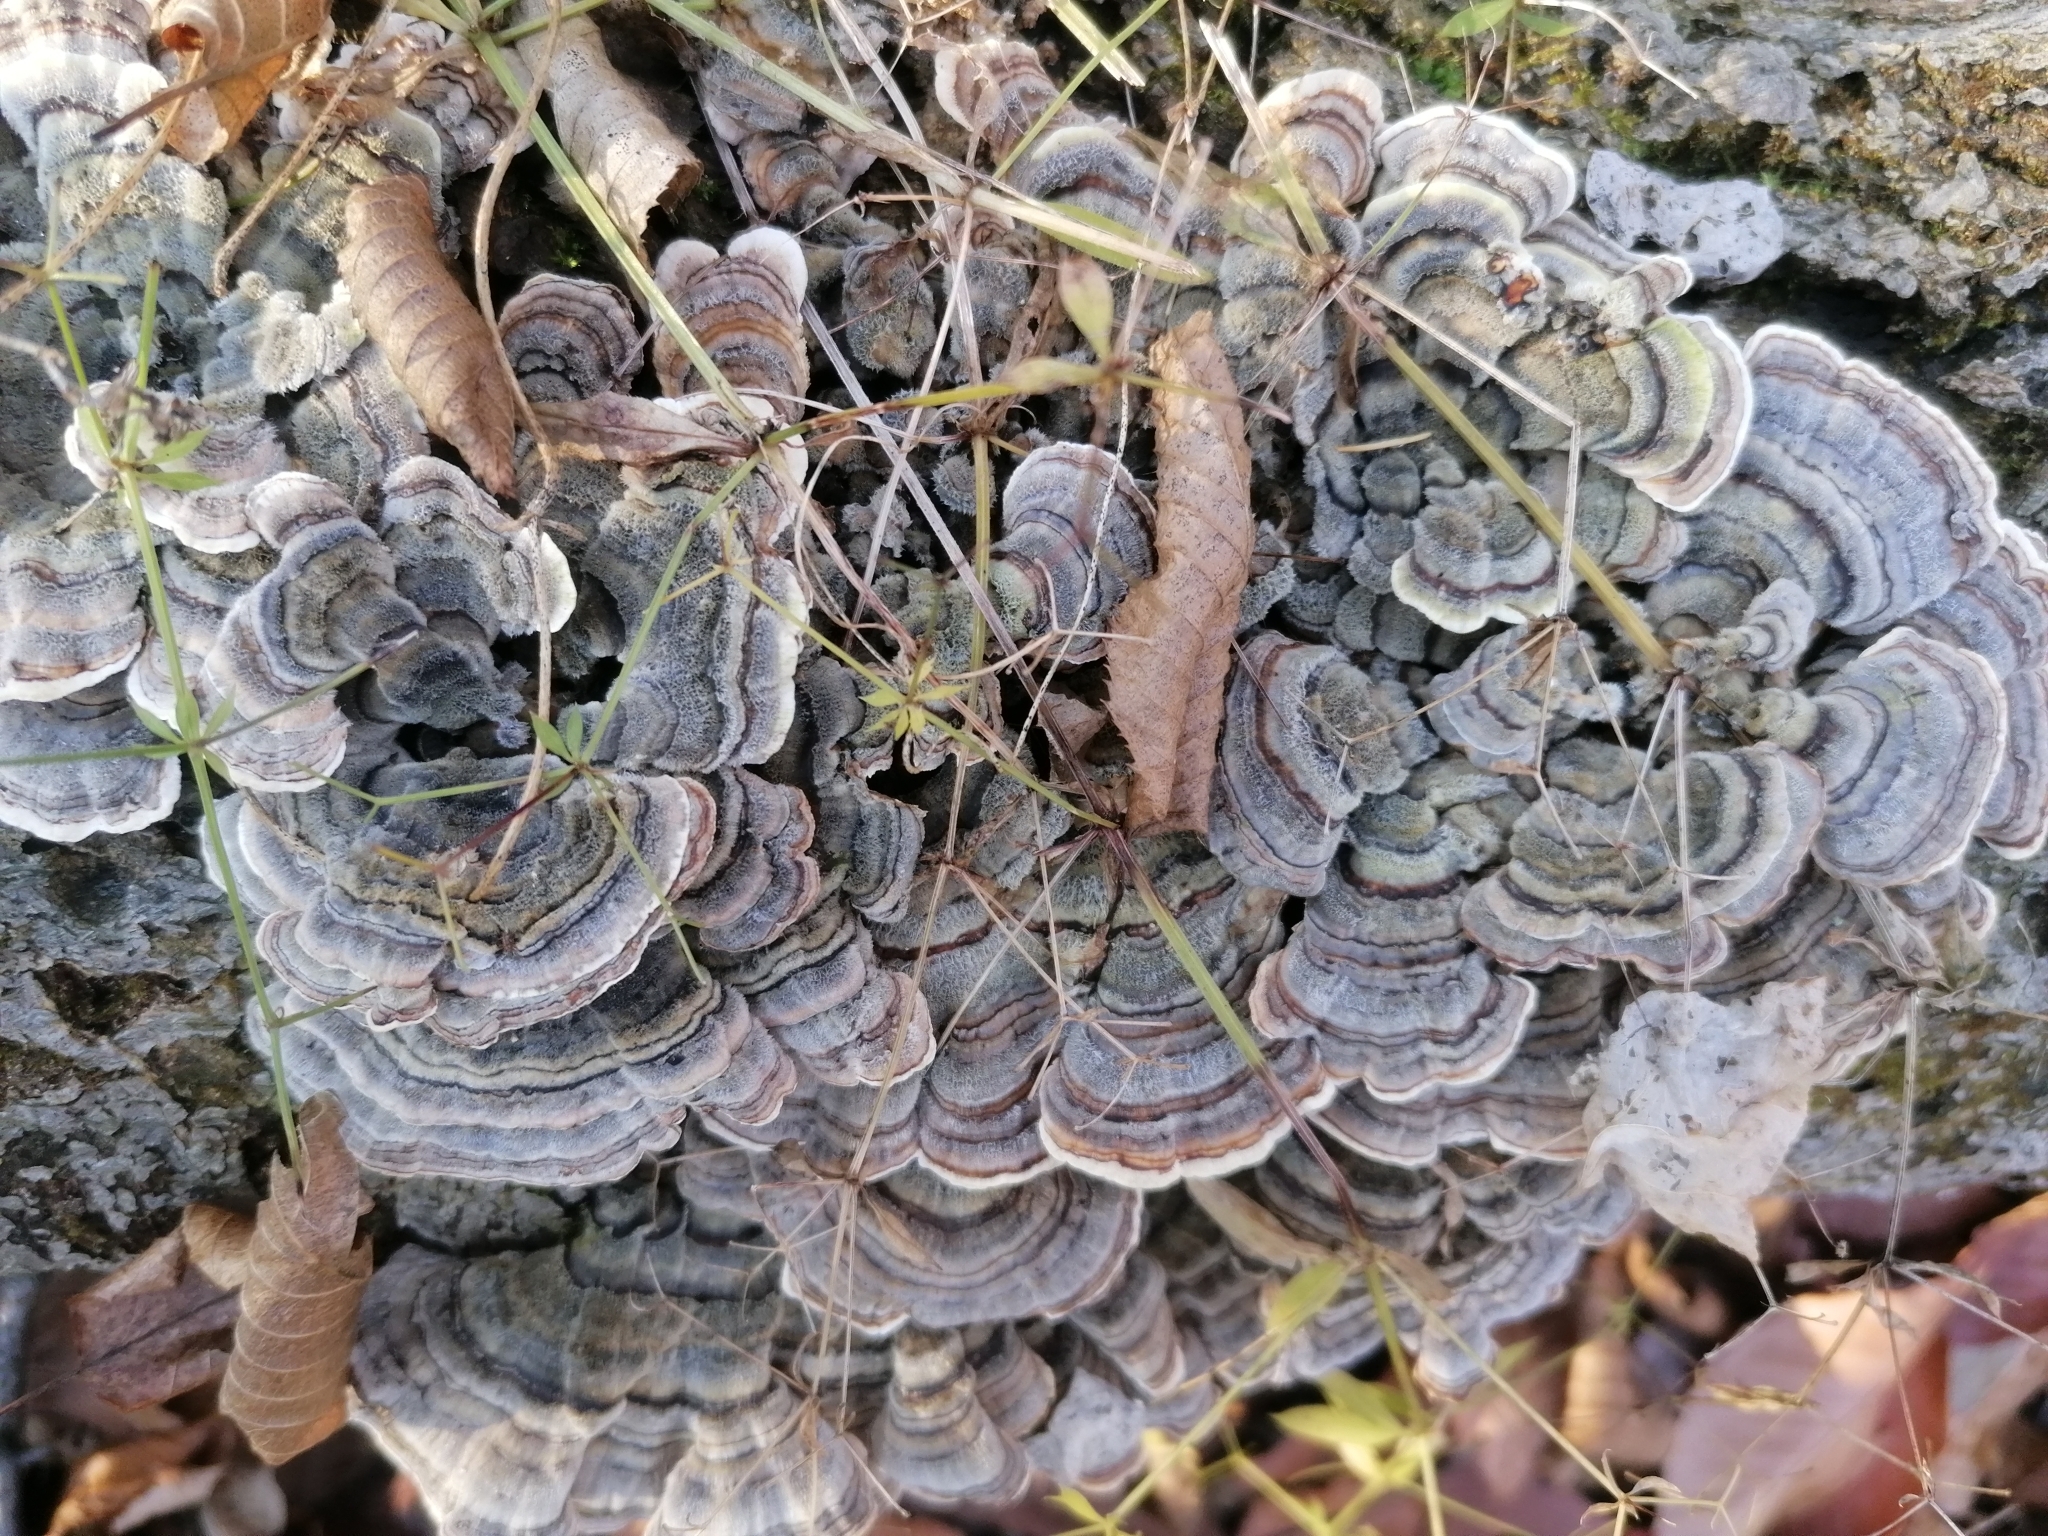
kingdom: Fungi
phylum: Basidiomycota
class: Agaricomycetes
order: Polyporales
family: Polyporaceae
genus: Trametes
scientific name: Trametes versicolor
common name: Turkeytail
